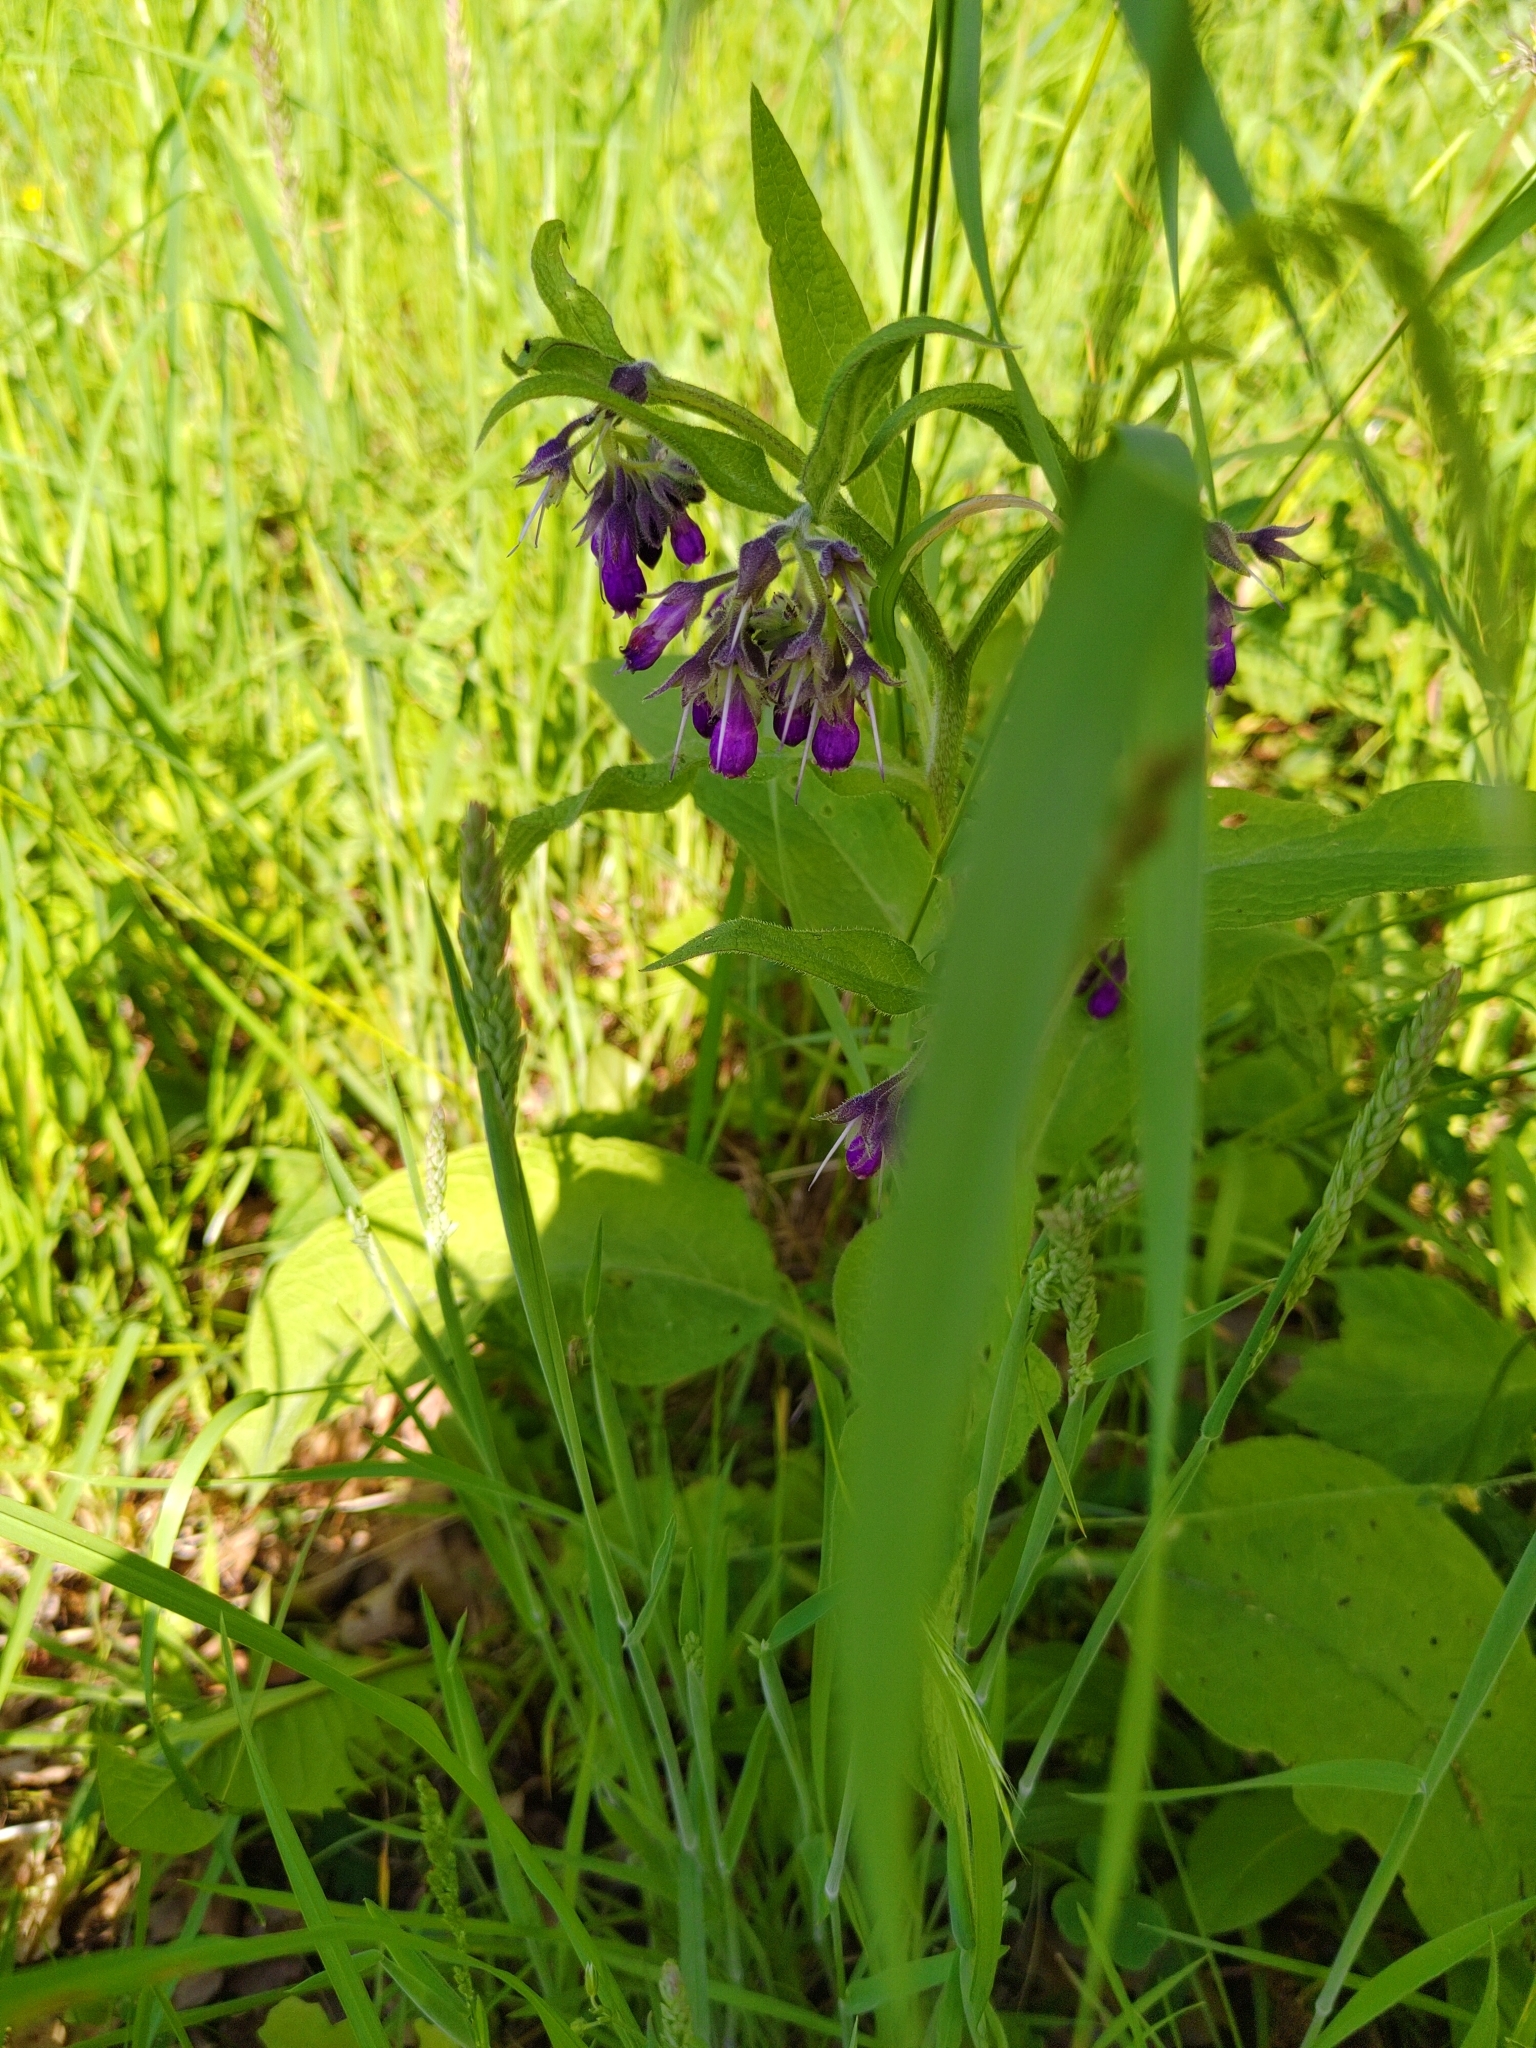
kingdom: Plantae
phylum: Tracheophyta
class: Magnoliopsida
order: Boraginales
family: Boraginaceae
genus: Symphytum
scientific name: Symphytum officinale
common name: Common comfrey
